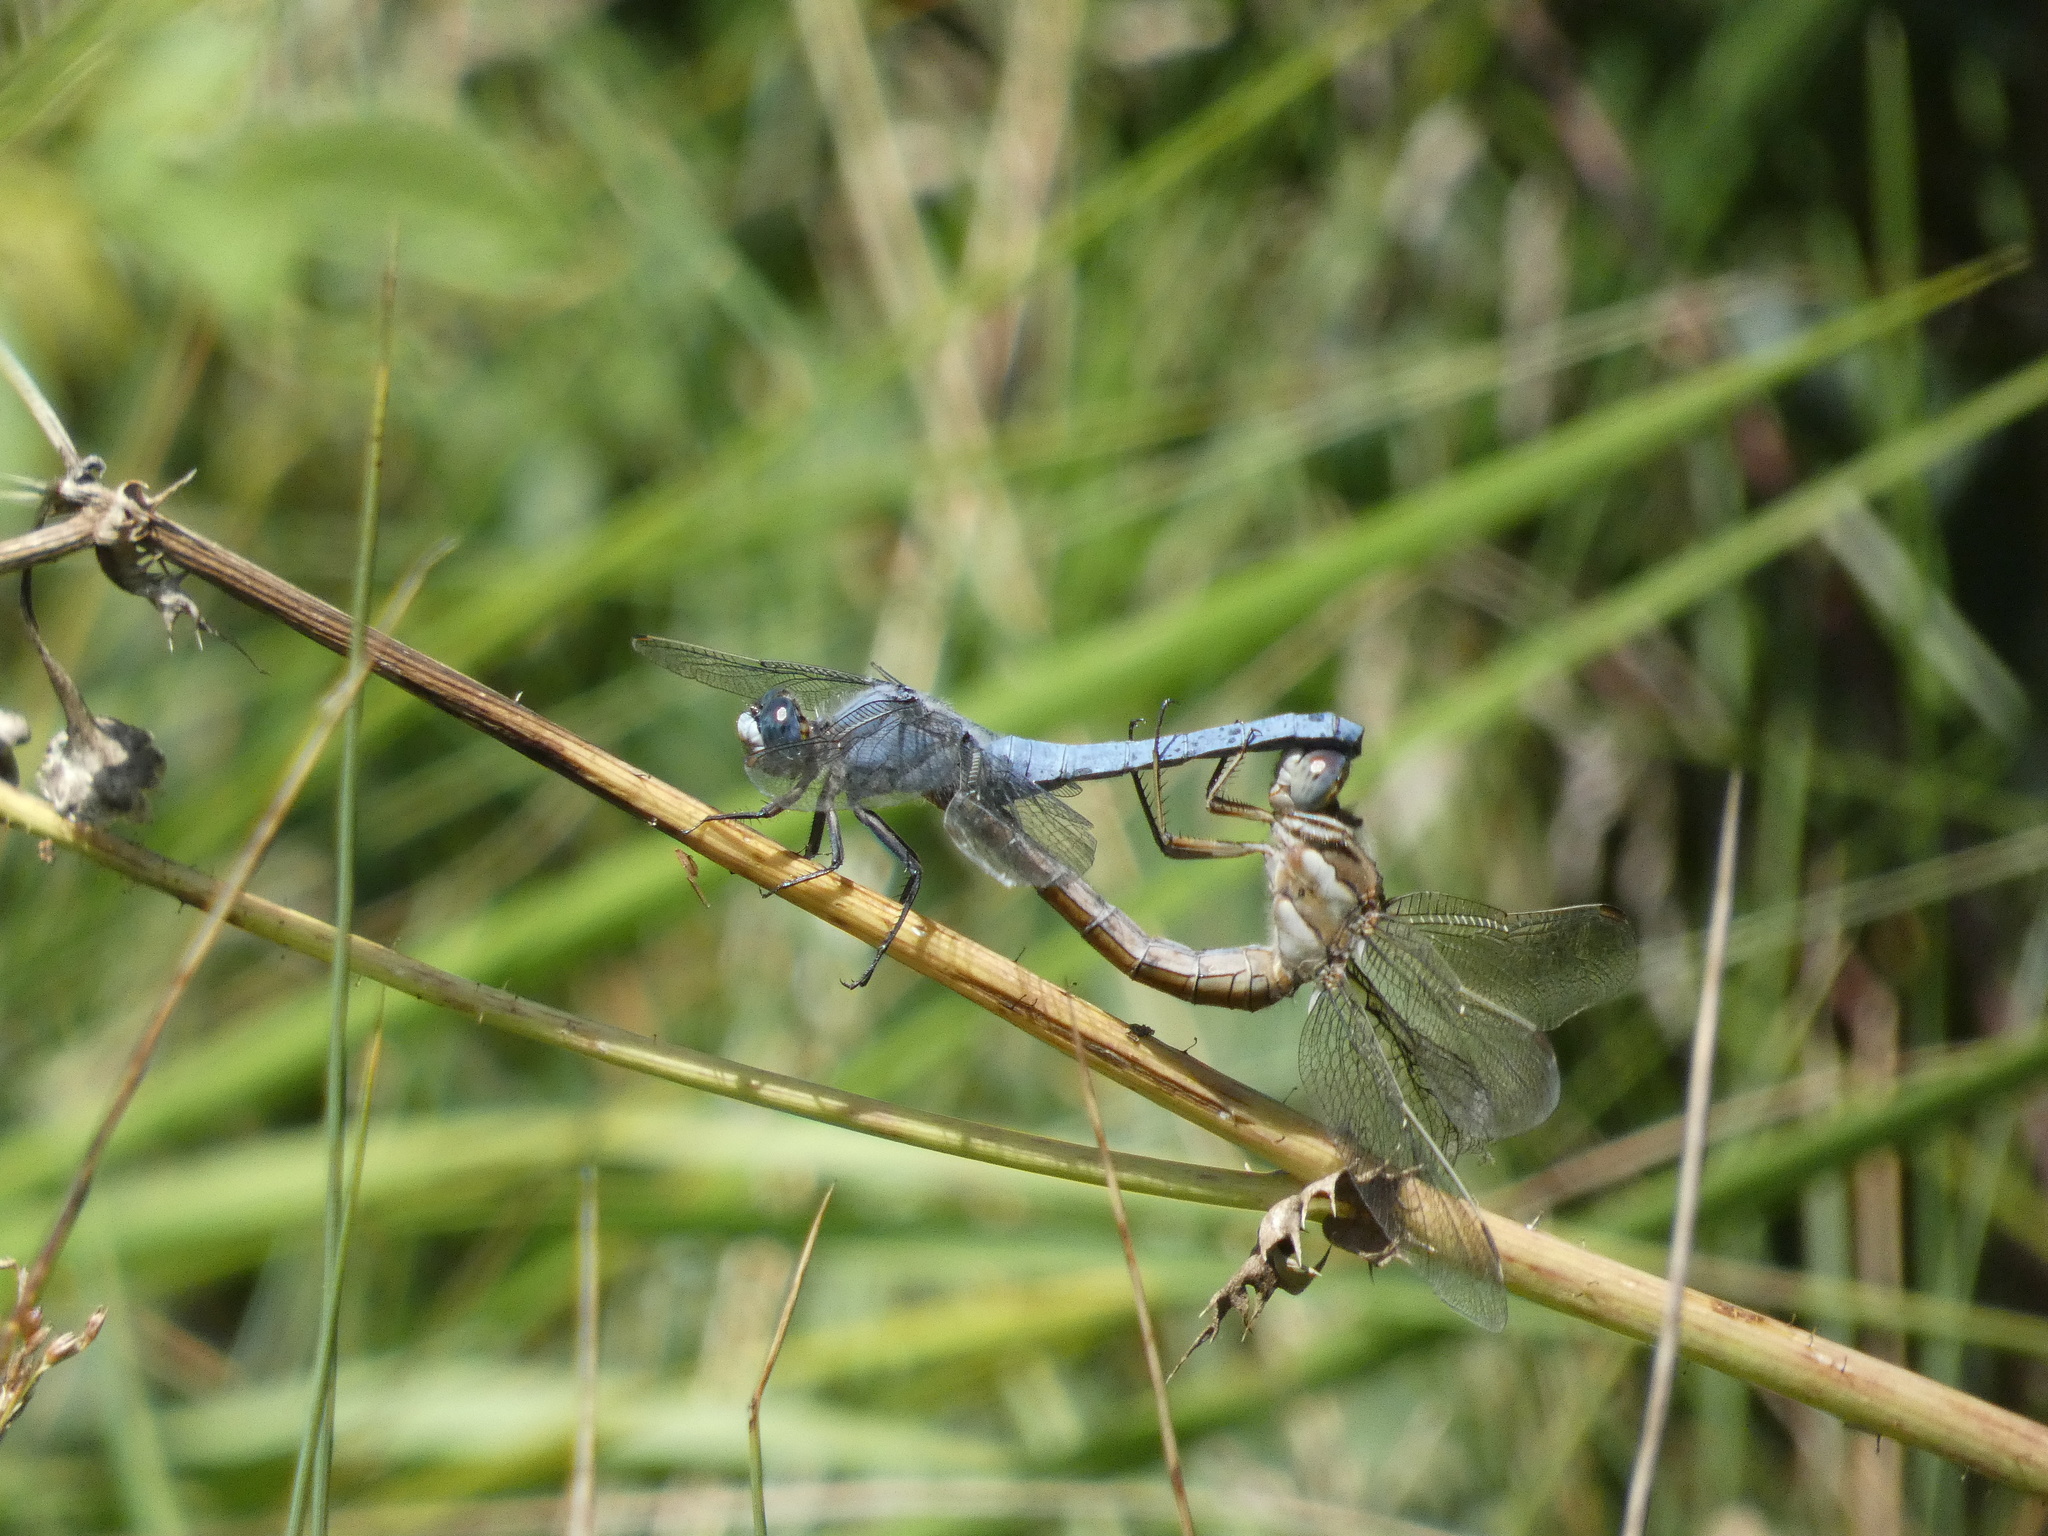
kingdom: Animalia
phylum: Arthropoda
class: Insecta
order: Odonata
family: Libellulidae
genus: Orthetrum
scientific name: Orthetrum brunneum
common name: Southern skimmer
